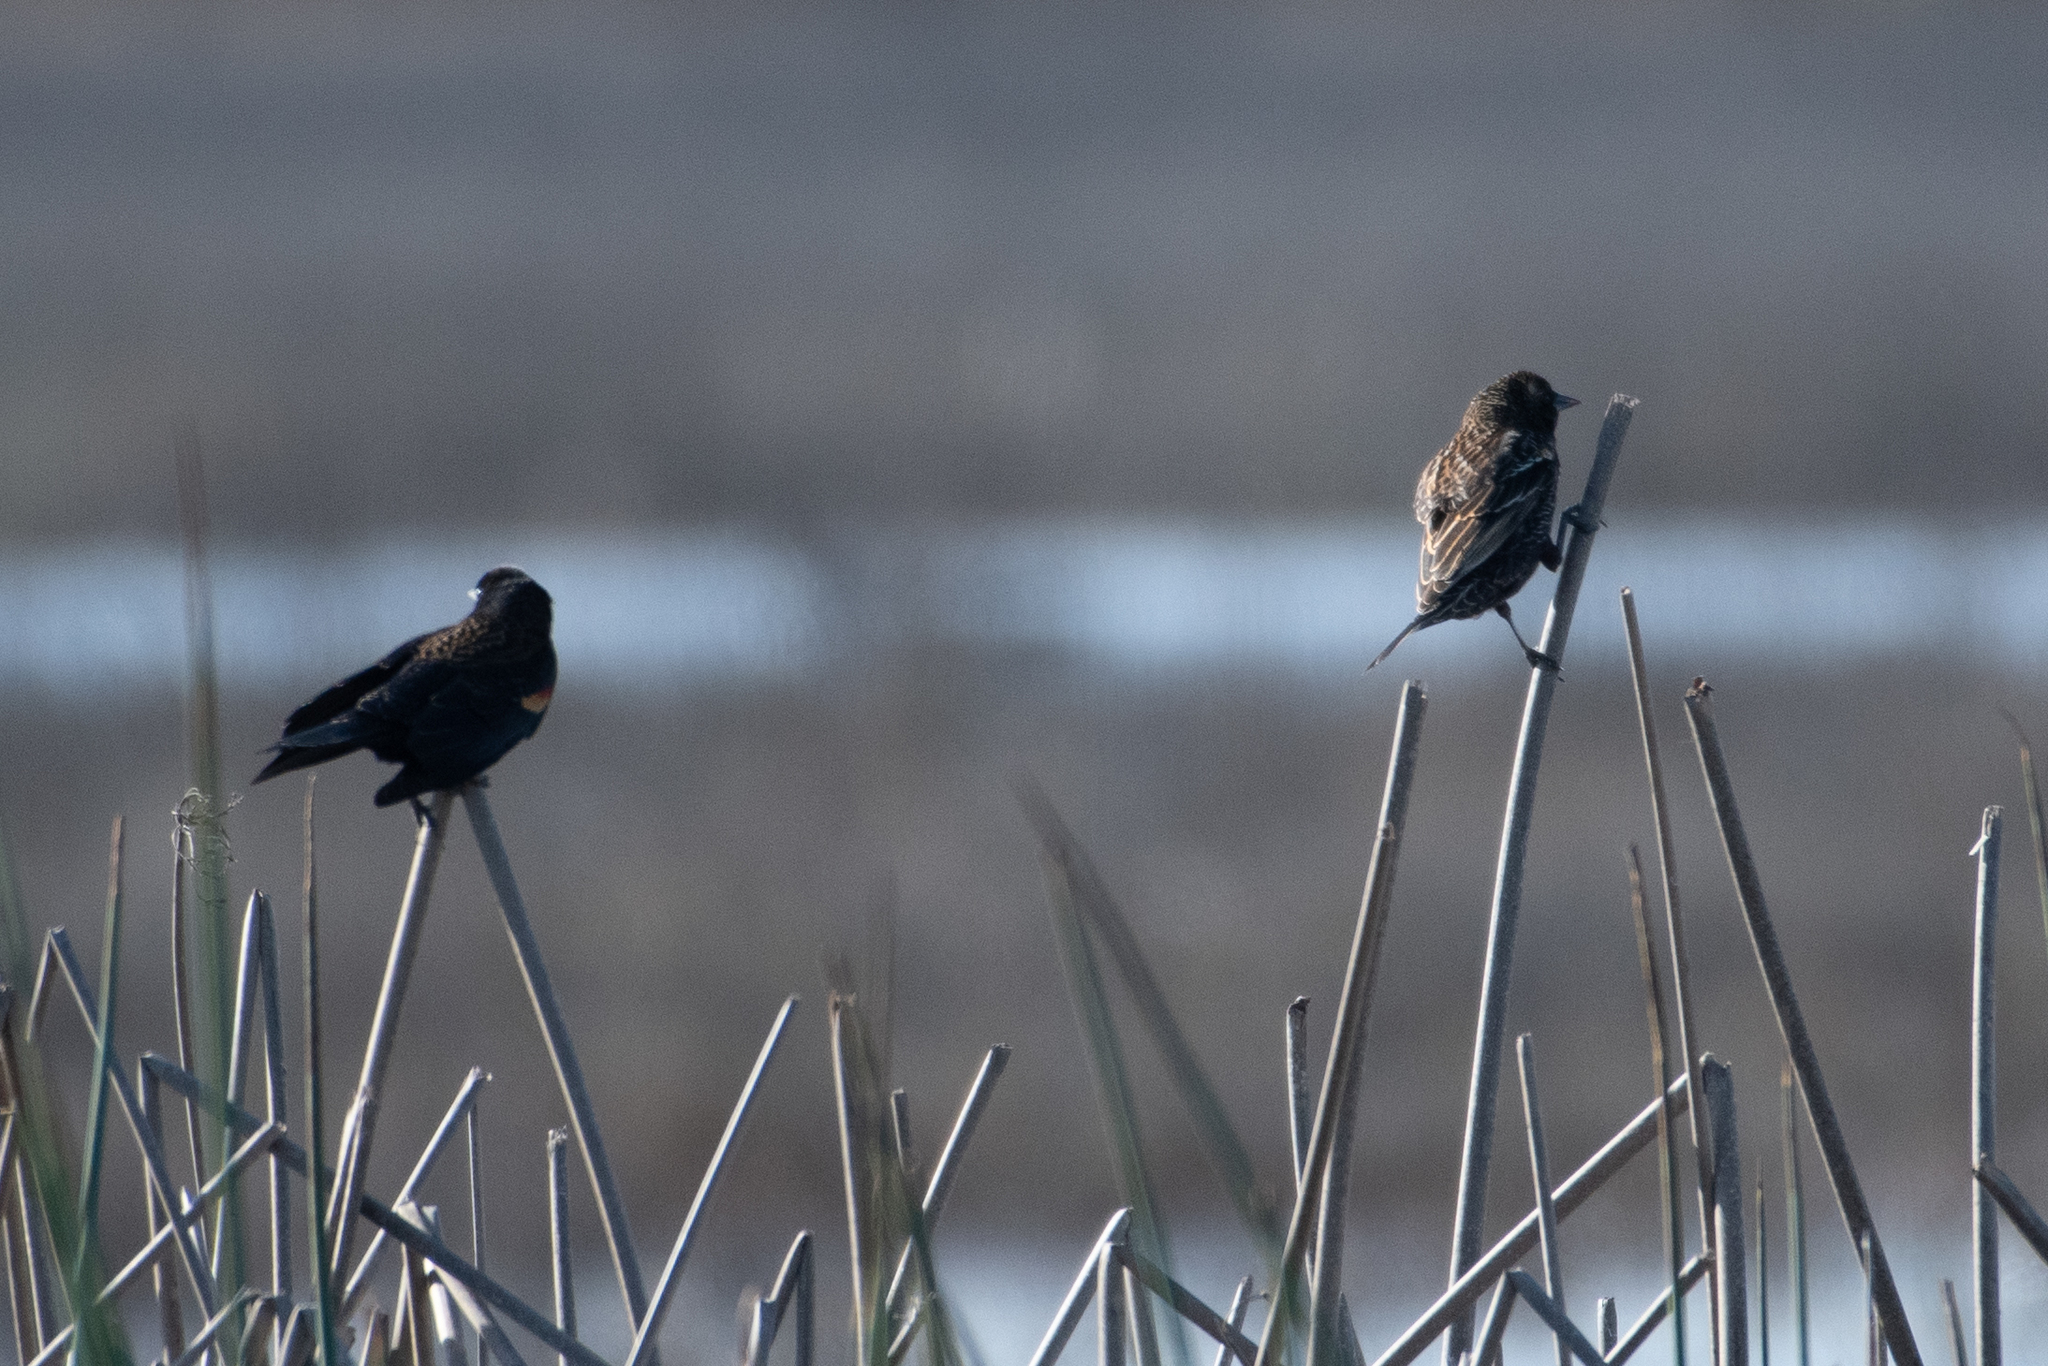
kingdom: Animalia
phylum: Chordata
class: Aves
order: Passeriformes
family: Icteridae
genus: Agelaius
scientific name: Agelaius phoeniceus
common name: Red-winged blackbird
